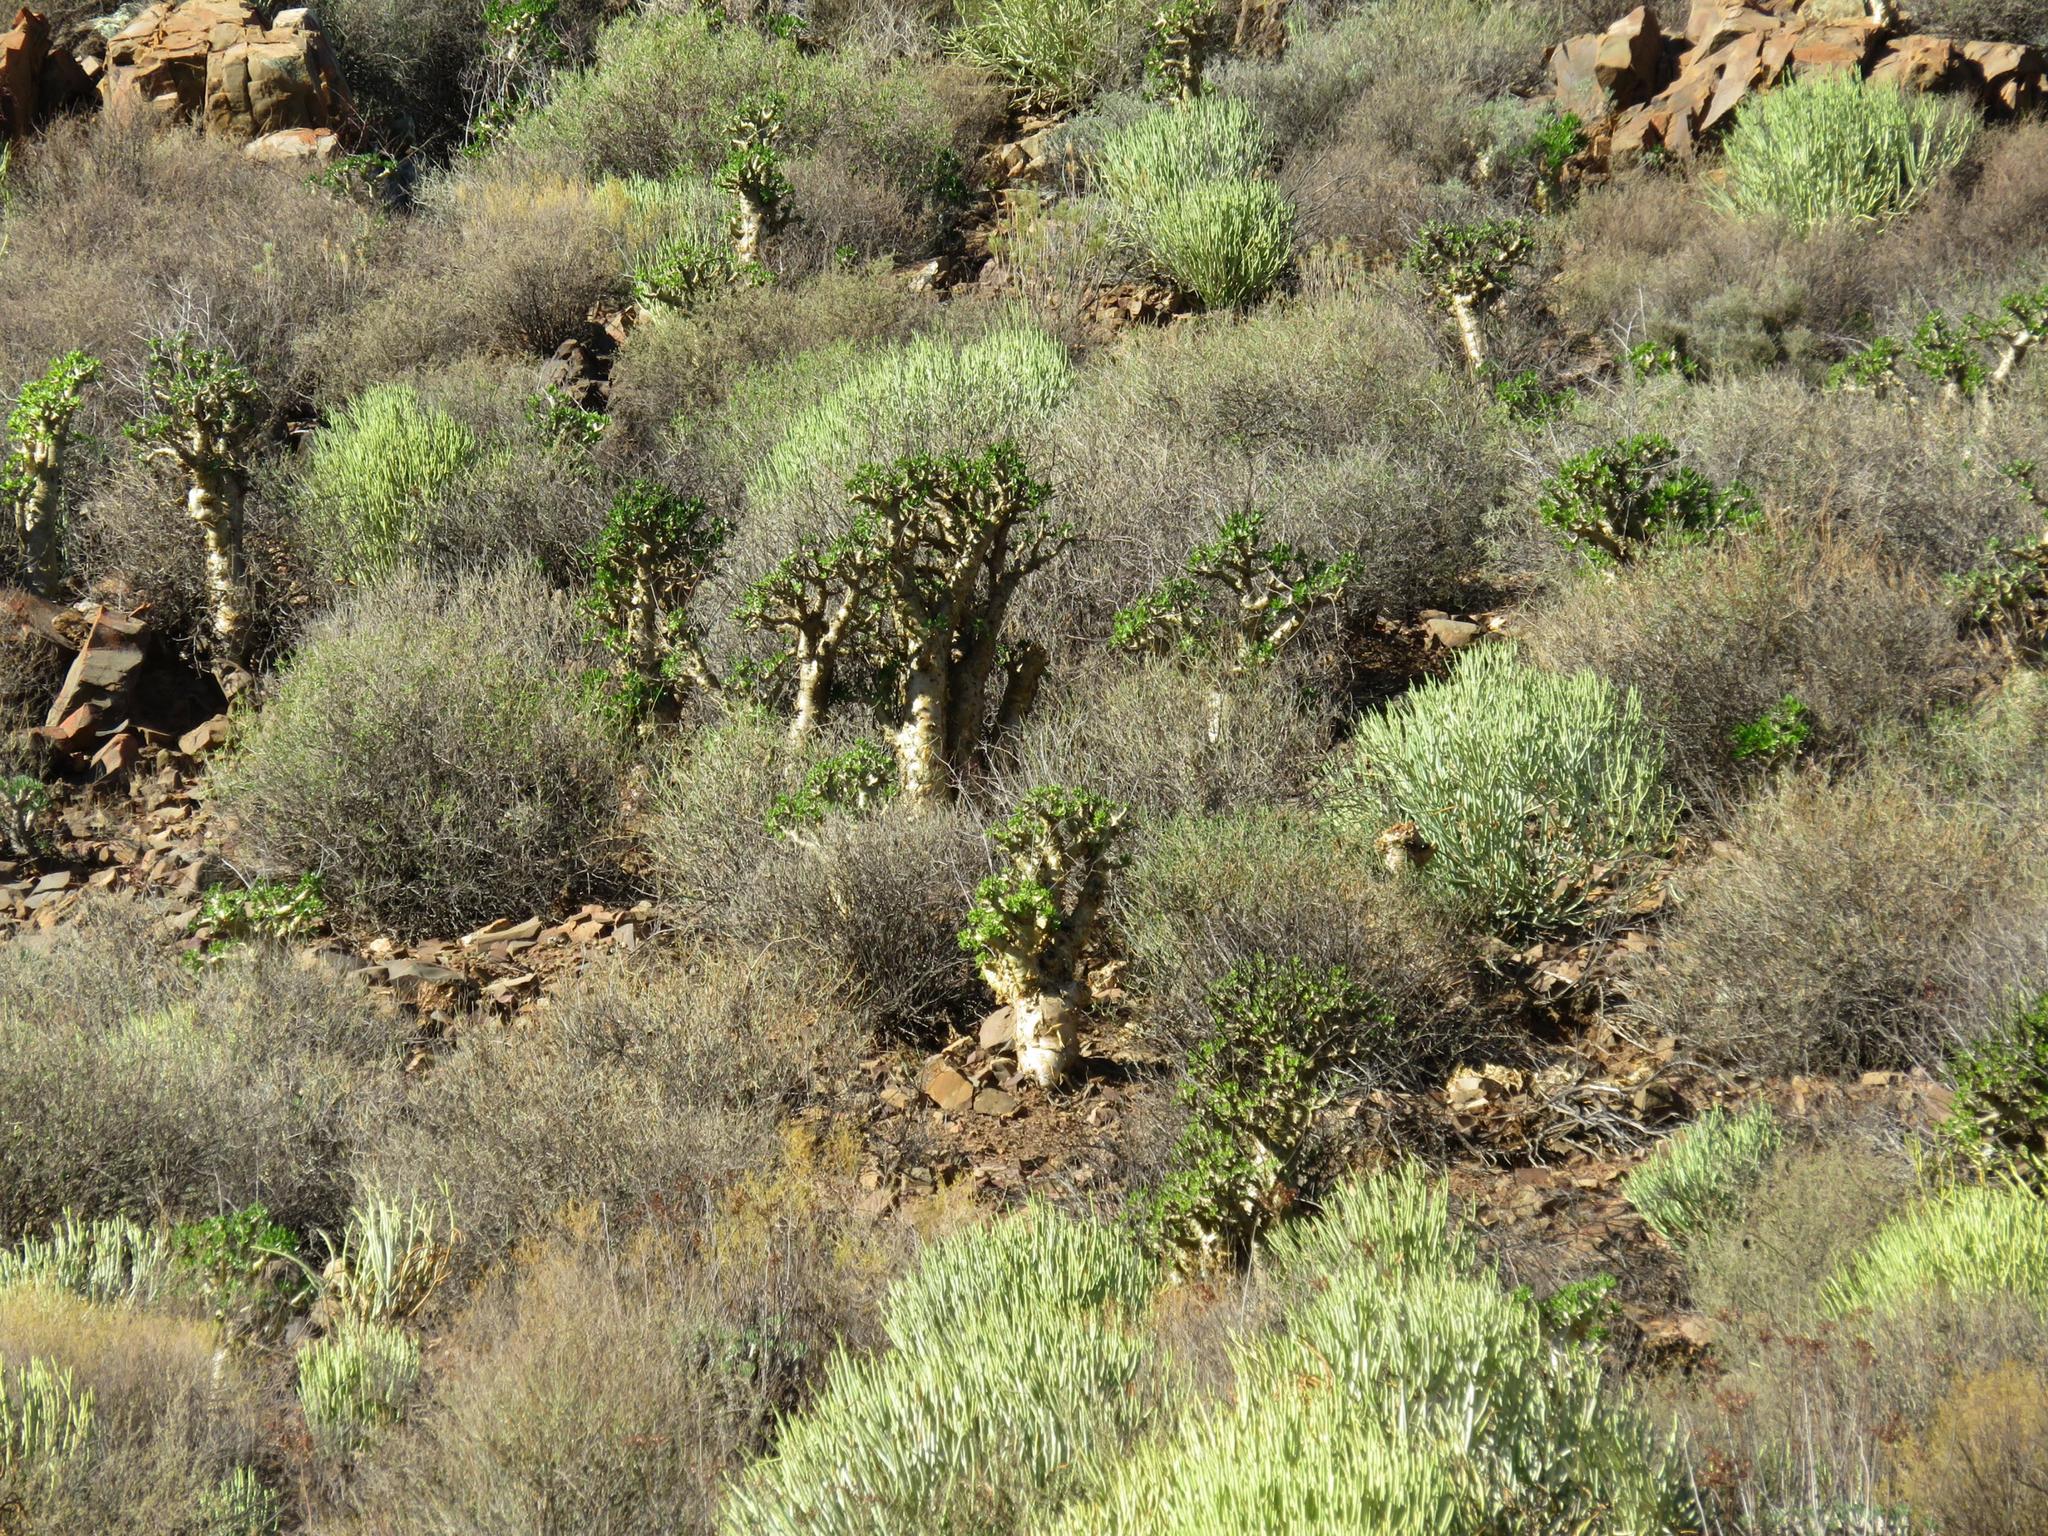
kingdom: Plantae
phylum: Tracheophyta
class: Magnoliopsida
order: Saxifragales
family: Crassulaceae
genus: Tylecodon
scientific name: Tylecodon paniculatus
